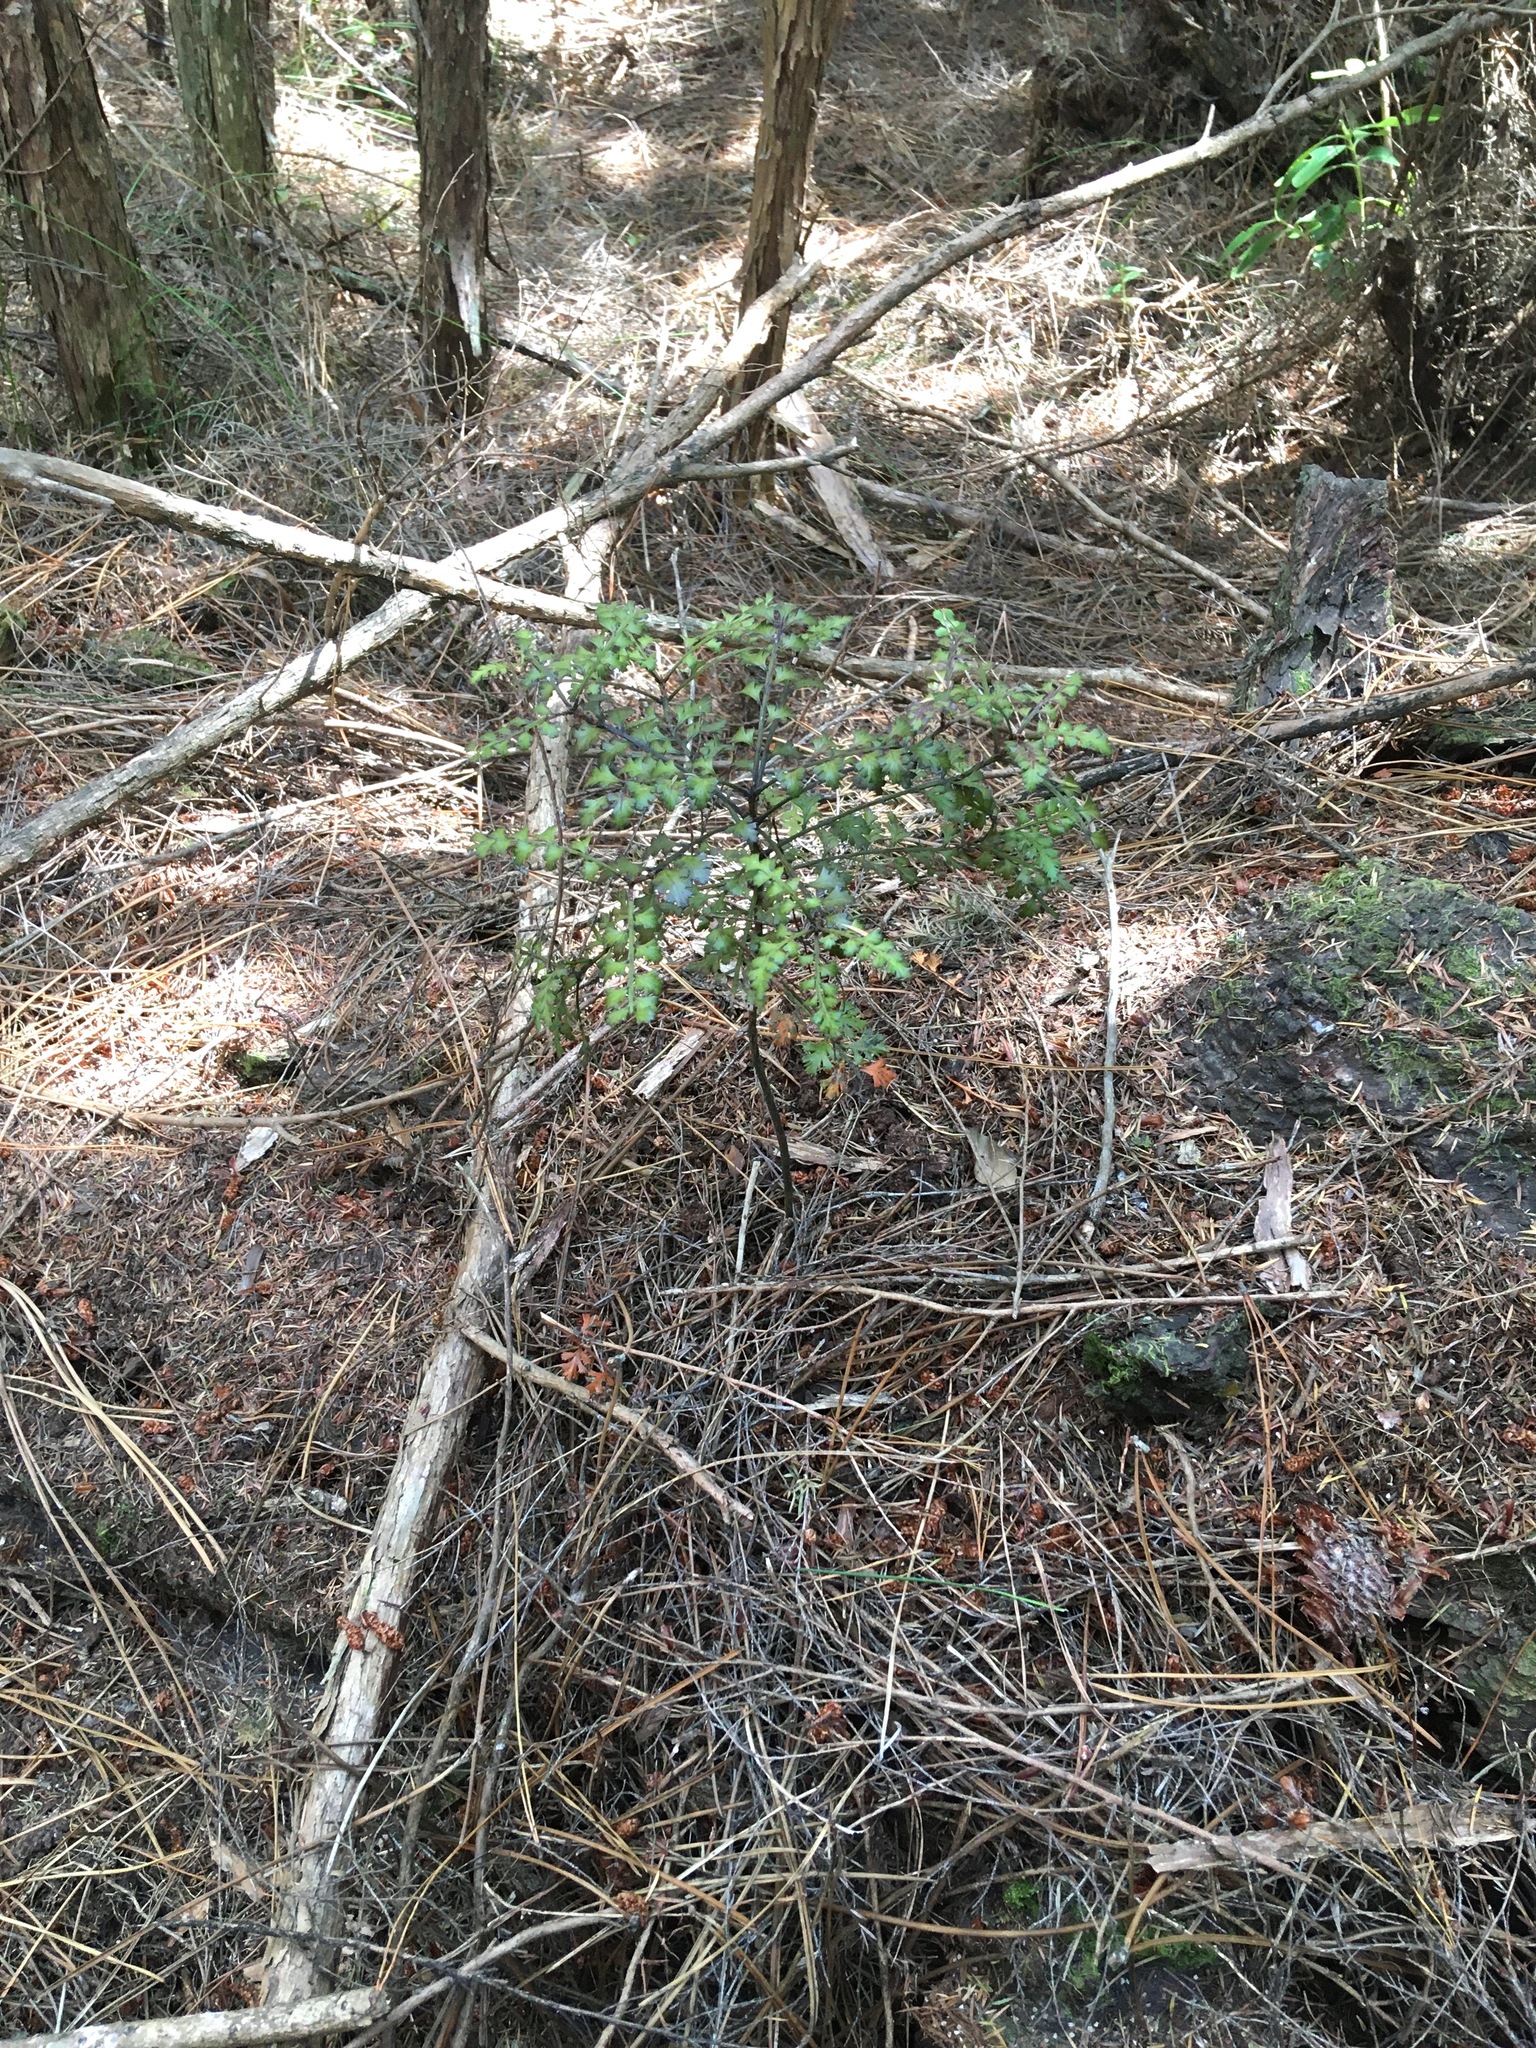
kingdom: Plantae
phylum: Tracheophyta
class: Pinopsida
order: Pinales
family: Phyllocladaceae
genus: Phyllocladus
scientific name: Phyllocladus trichomanoides
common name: Celery pine
